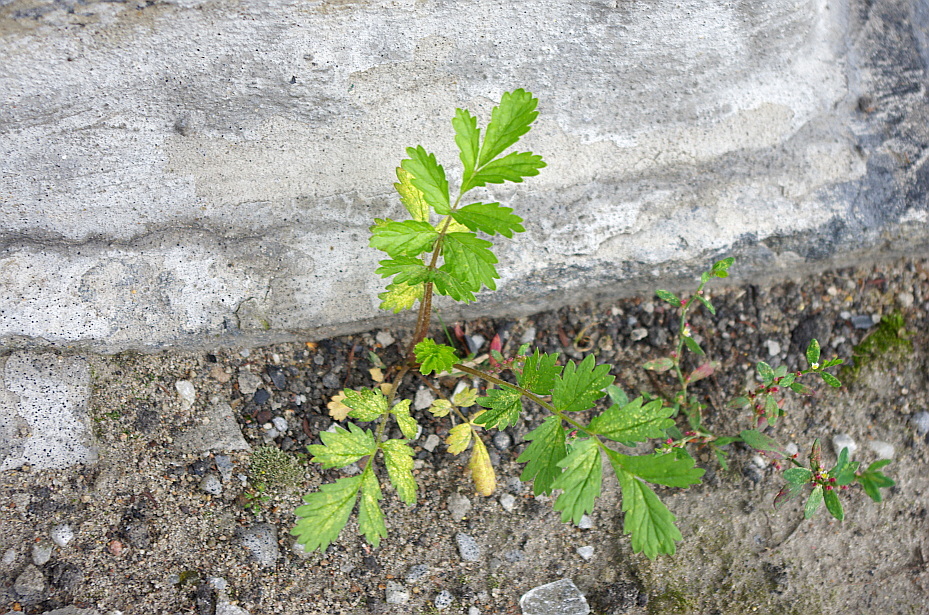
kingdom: Plantae
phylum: Tracheophyta
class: Magnoliopsida
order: Rosales
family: Rosaceae
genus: Potentilla
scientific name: Potentilla supina
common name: Prostrate cinquefoil
